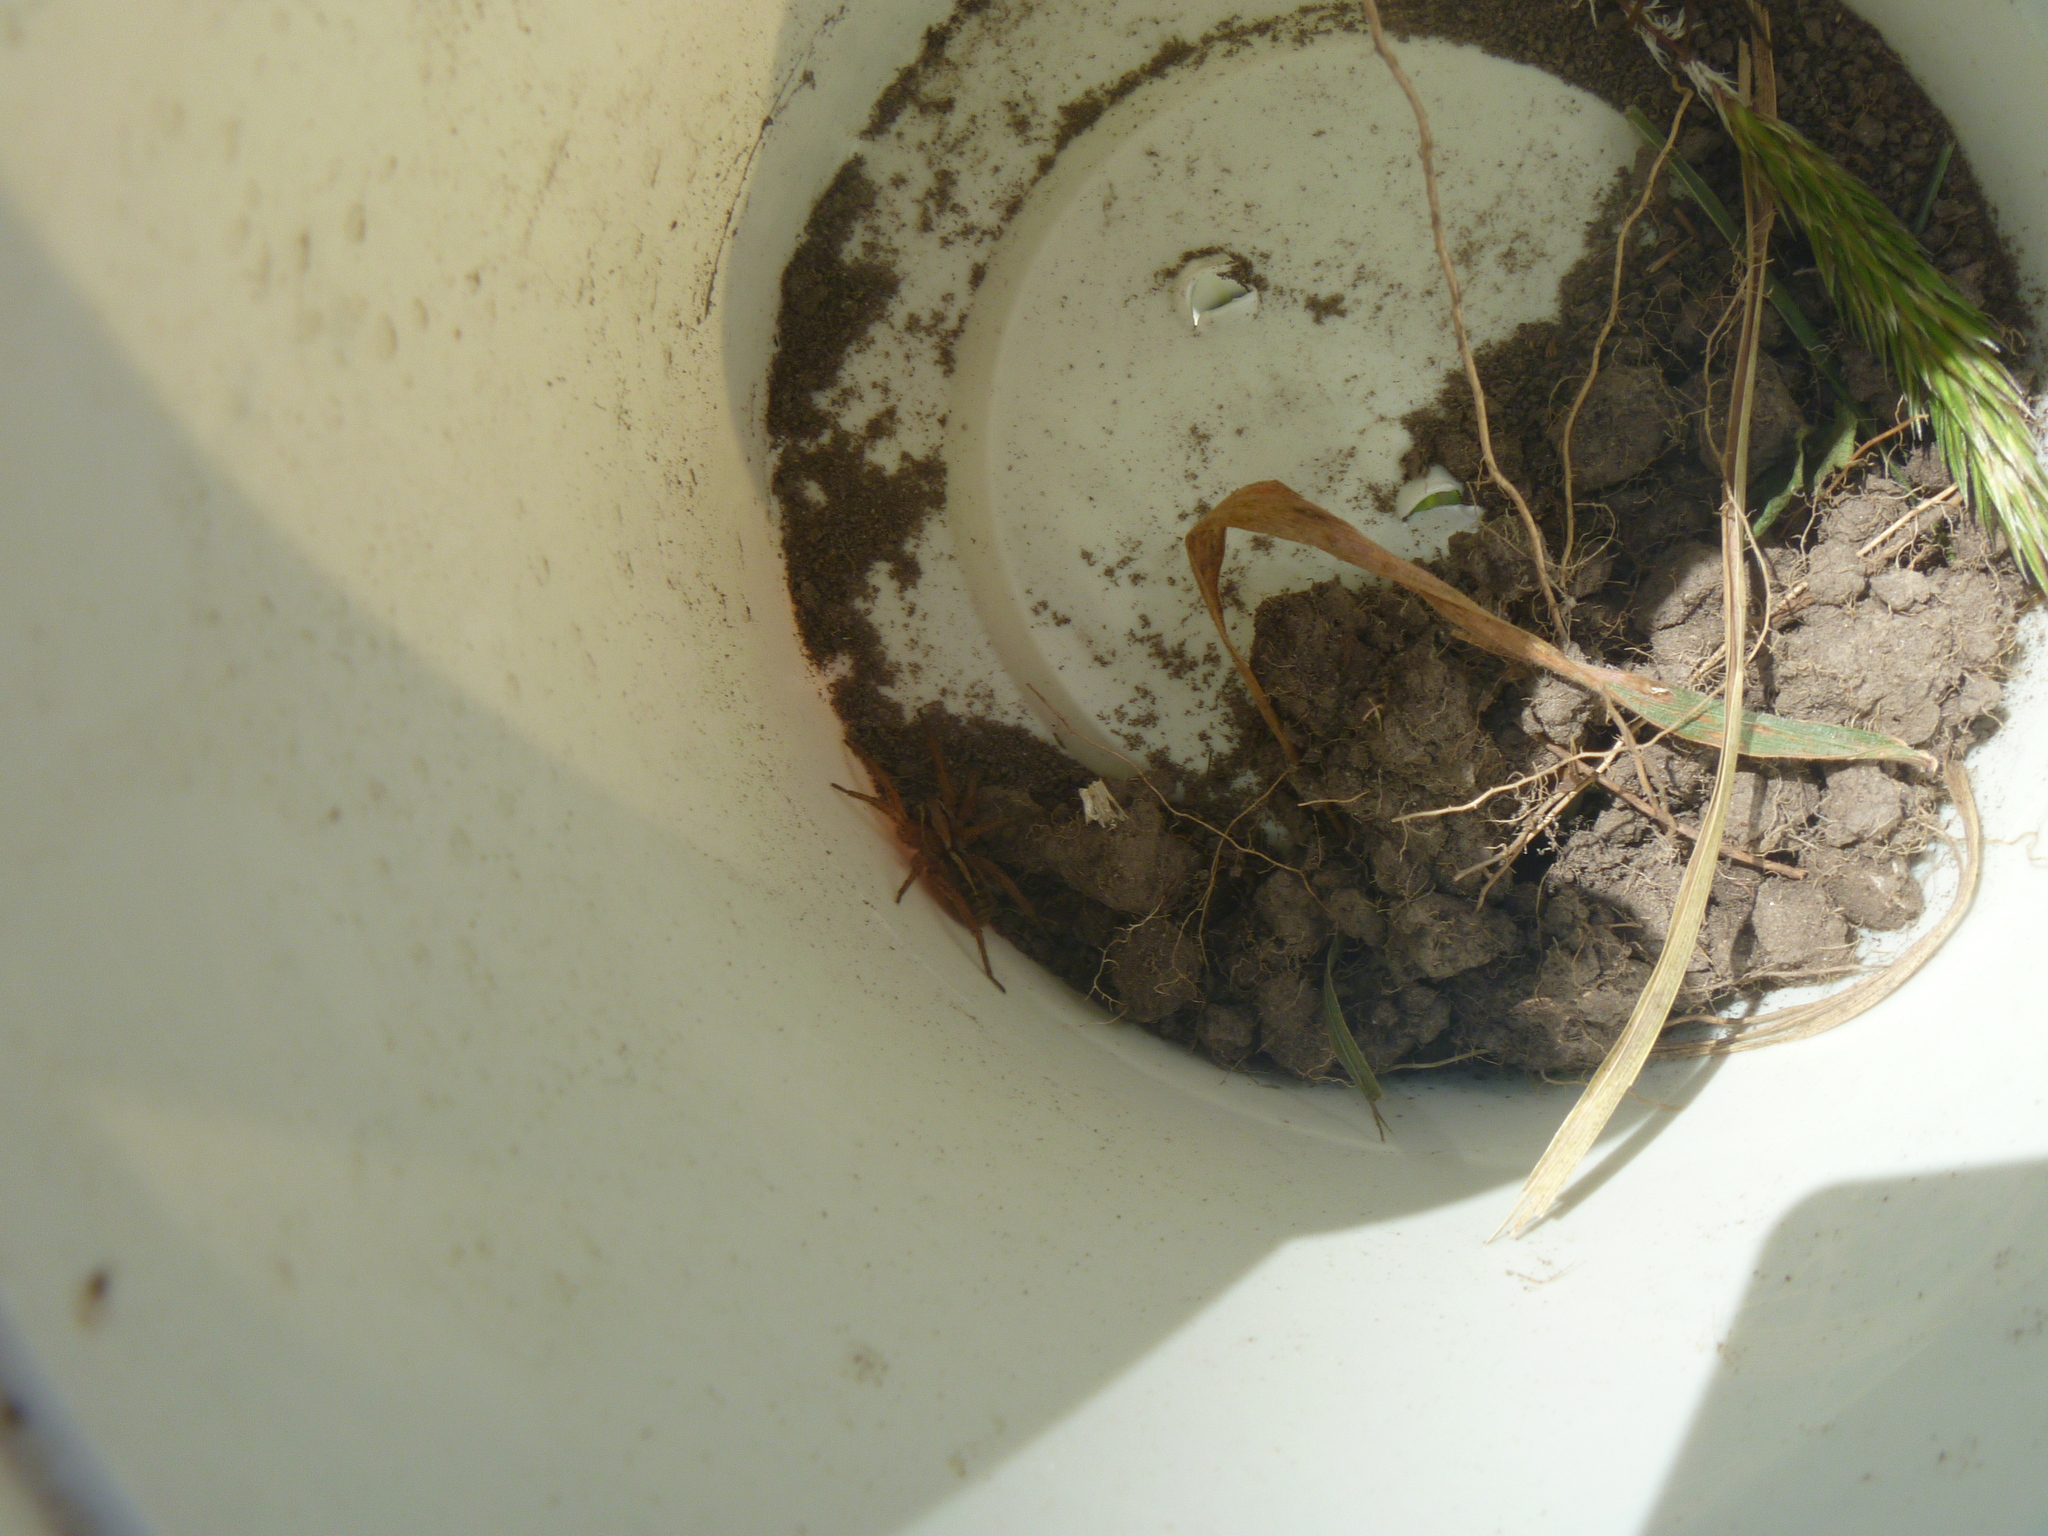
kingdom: Animalia
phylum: Arthropoda
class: Arachnida
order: Araneae
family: Lycosidae
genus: Anoteropsis
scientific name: Anoteropsis hilaris
